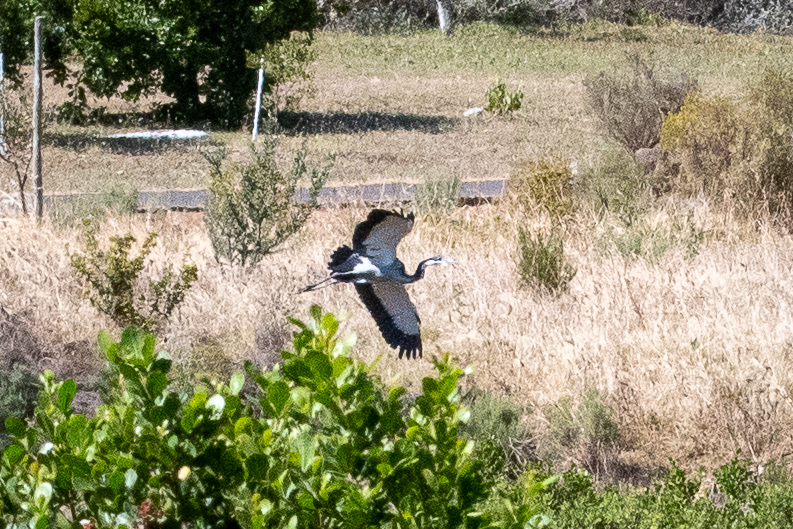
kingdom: Animalia
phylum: Chordata
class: Aves
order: Pelecaniformes
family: Ardeidae
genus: Ardea
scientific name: Ardea melanocephala
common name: Black-headed heron
